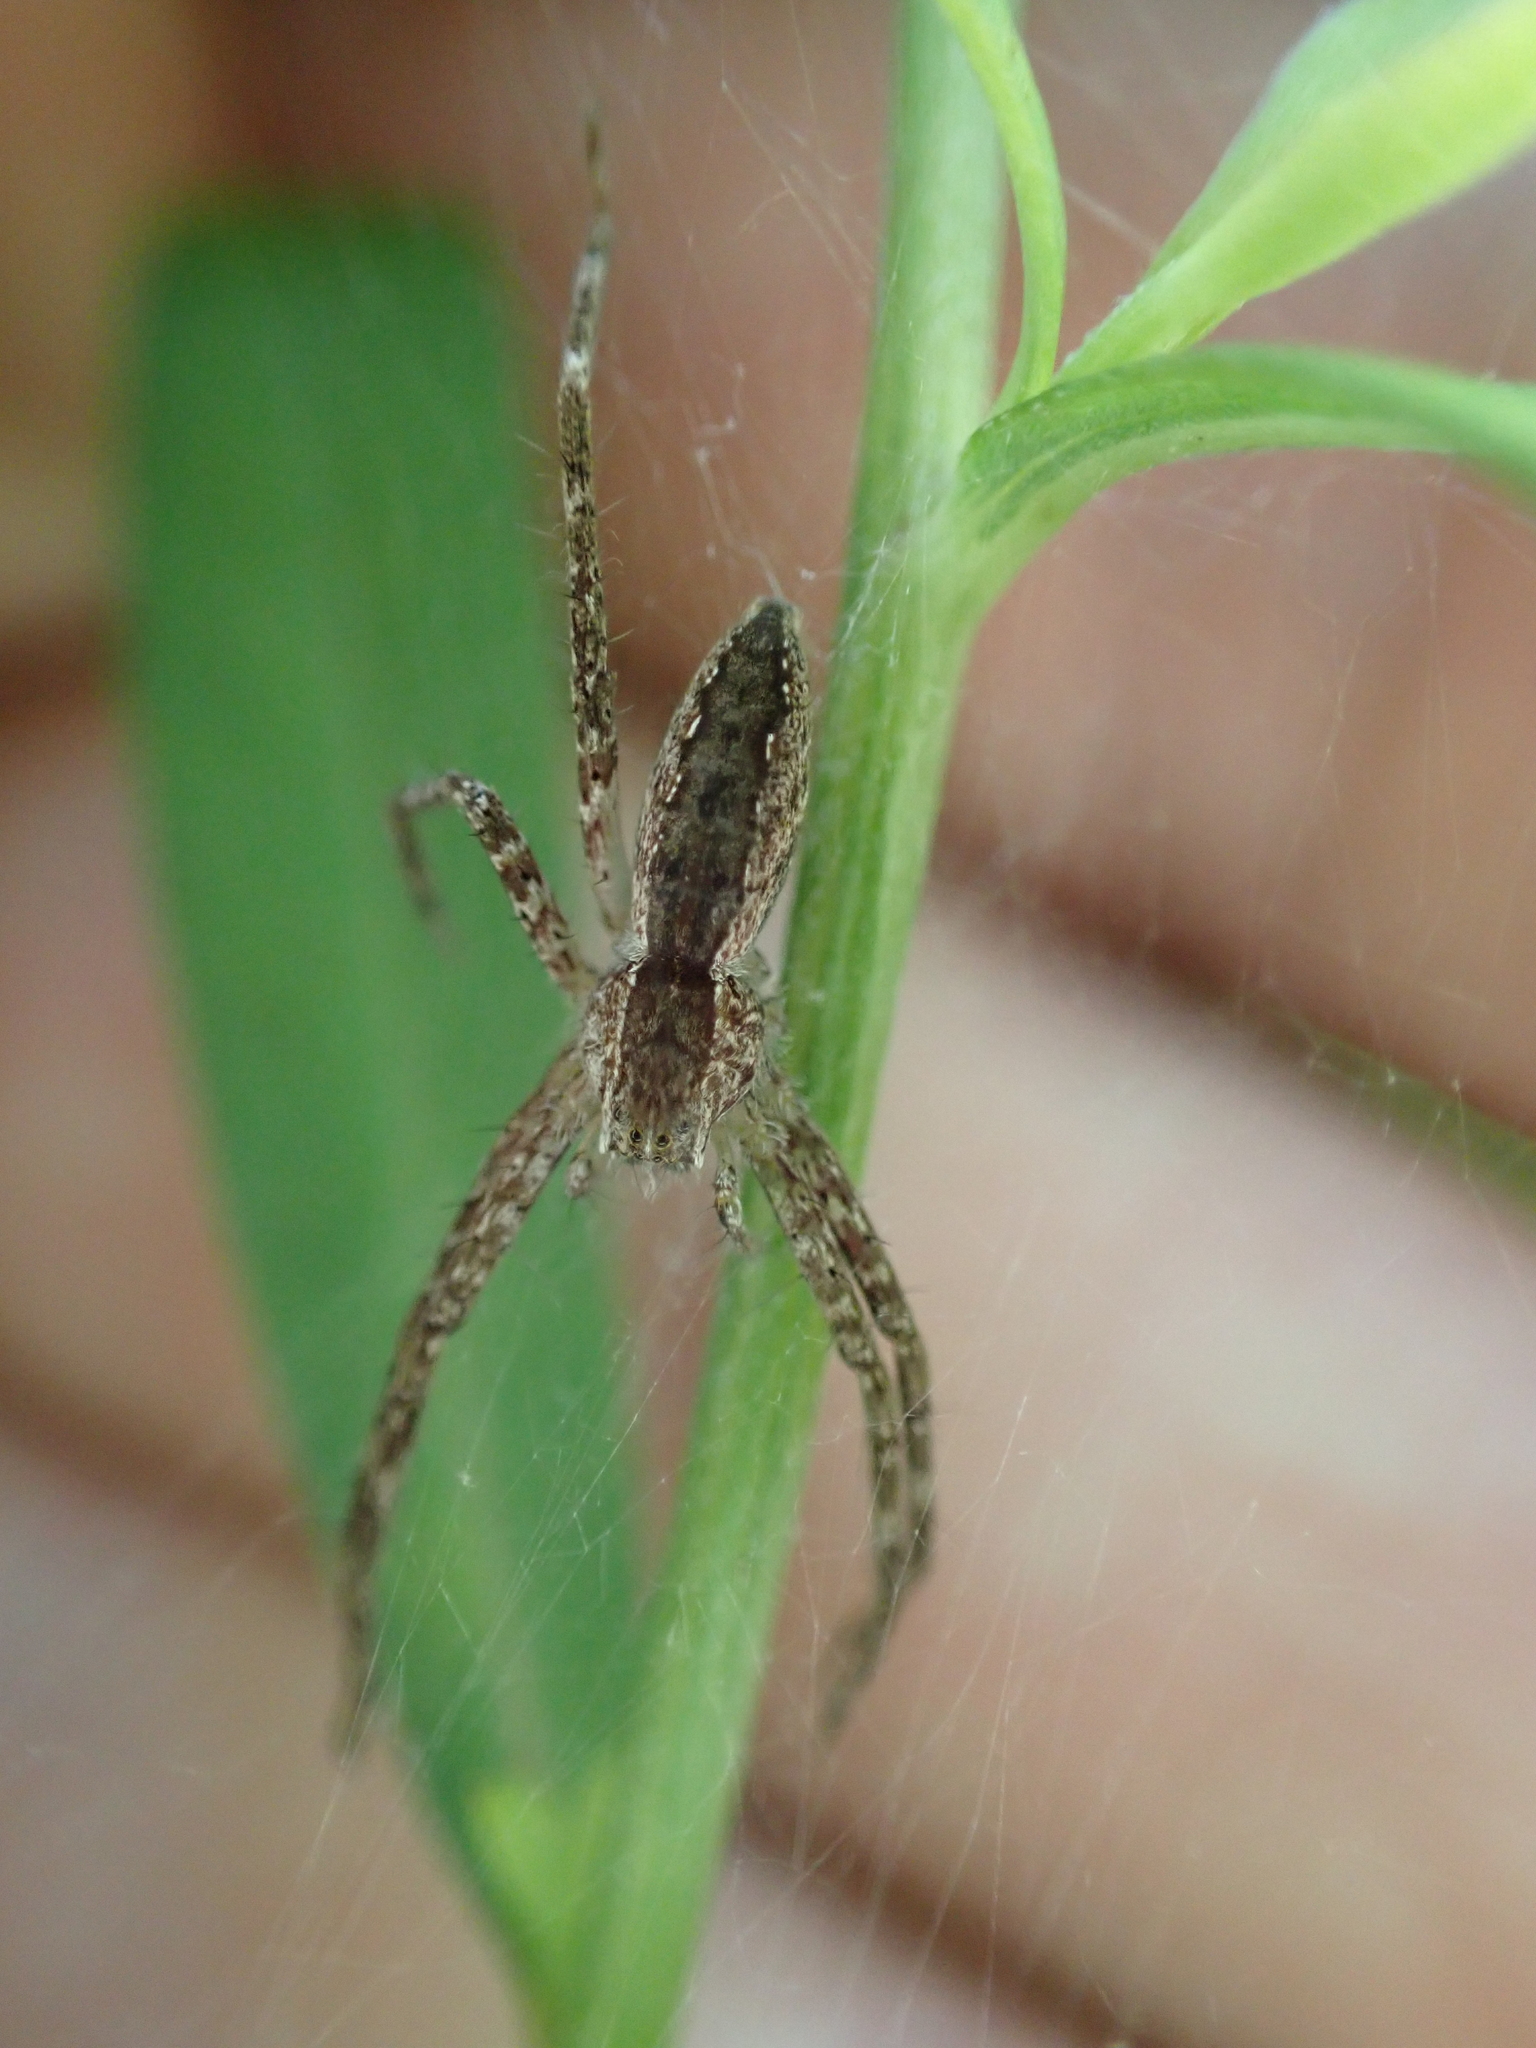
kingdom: Animalia
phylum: Arthropoda
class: Arachnida
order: Araneae
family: Pisauridae
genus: Pisaurina
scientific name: Pisaurina mira
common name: American nursery web spider
